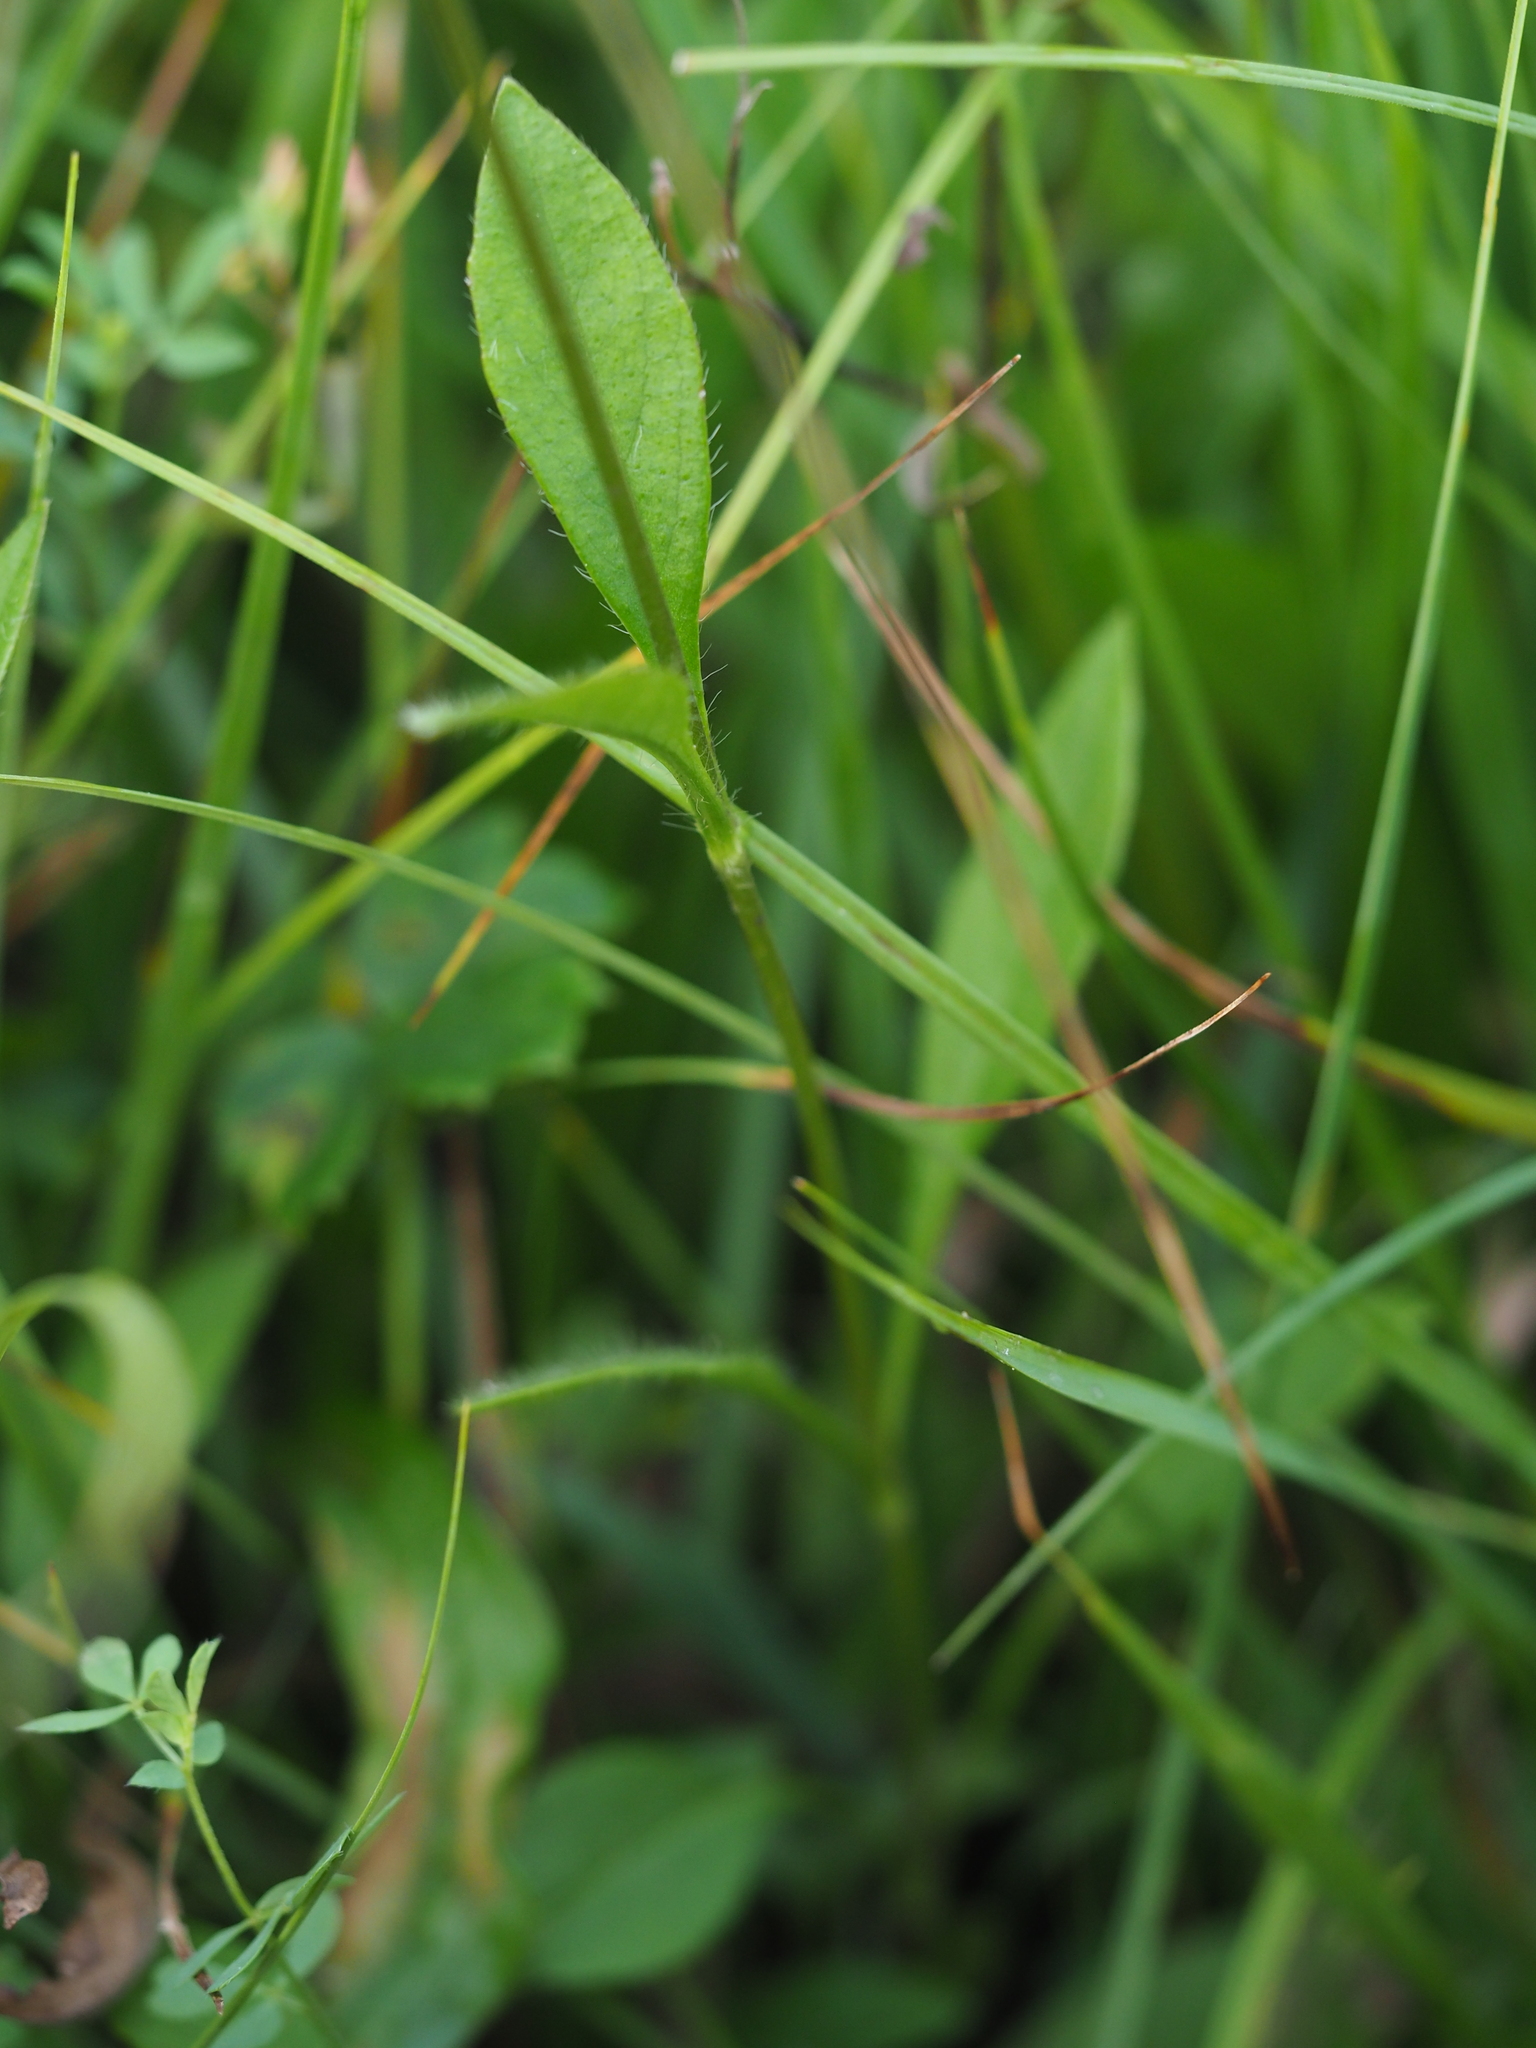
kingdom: Plantae
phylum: Tracheophyta
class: Magnoliopsida
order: Dipsacales
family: Caprifoliaceae
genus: Succisa
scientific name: Succisa pratensis
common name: Devil's-bit
